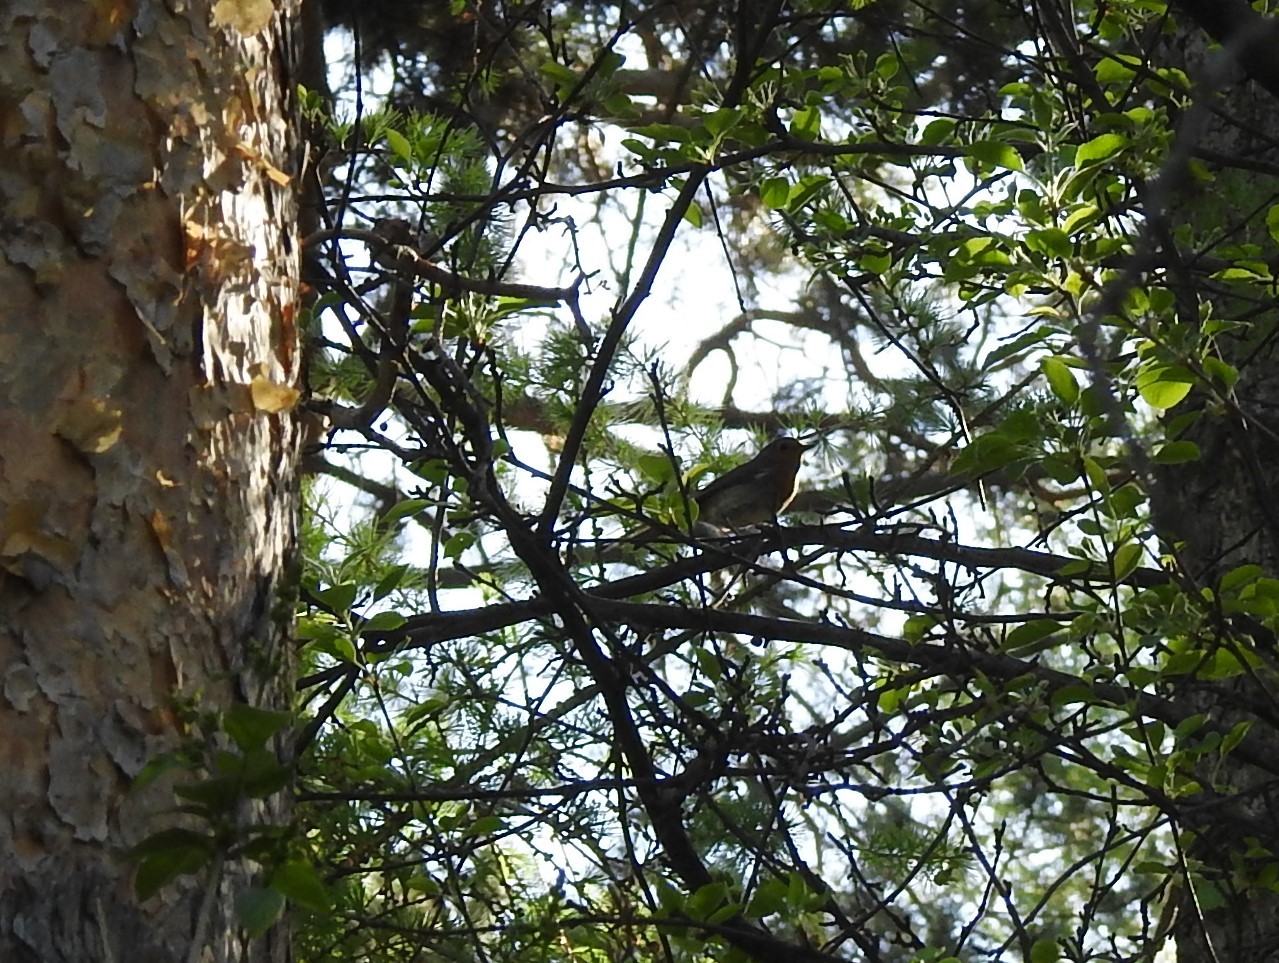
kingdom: Animalia
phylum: Chordata
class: Aves
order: Passeriformes
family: Muscicapidae
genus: Erithacus
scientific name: Erithacus rubecula
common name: European robin
